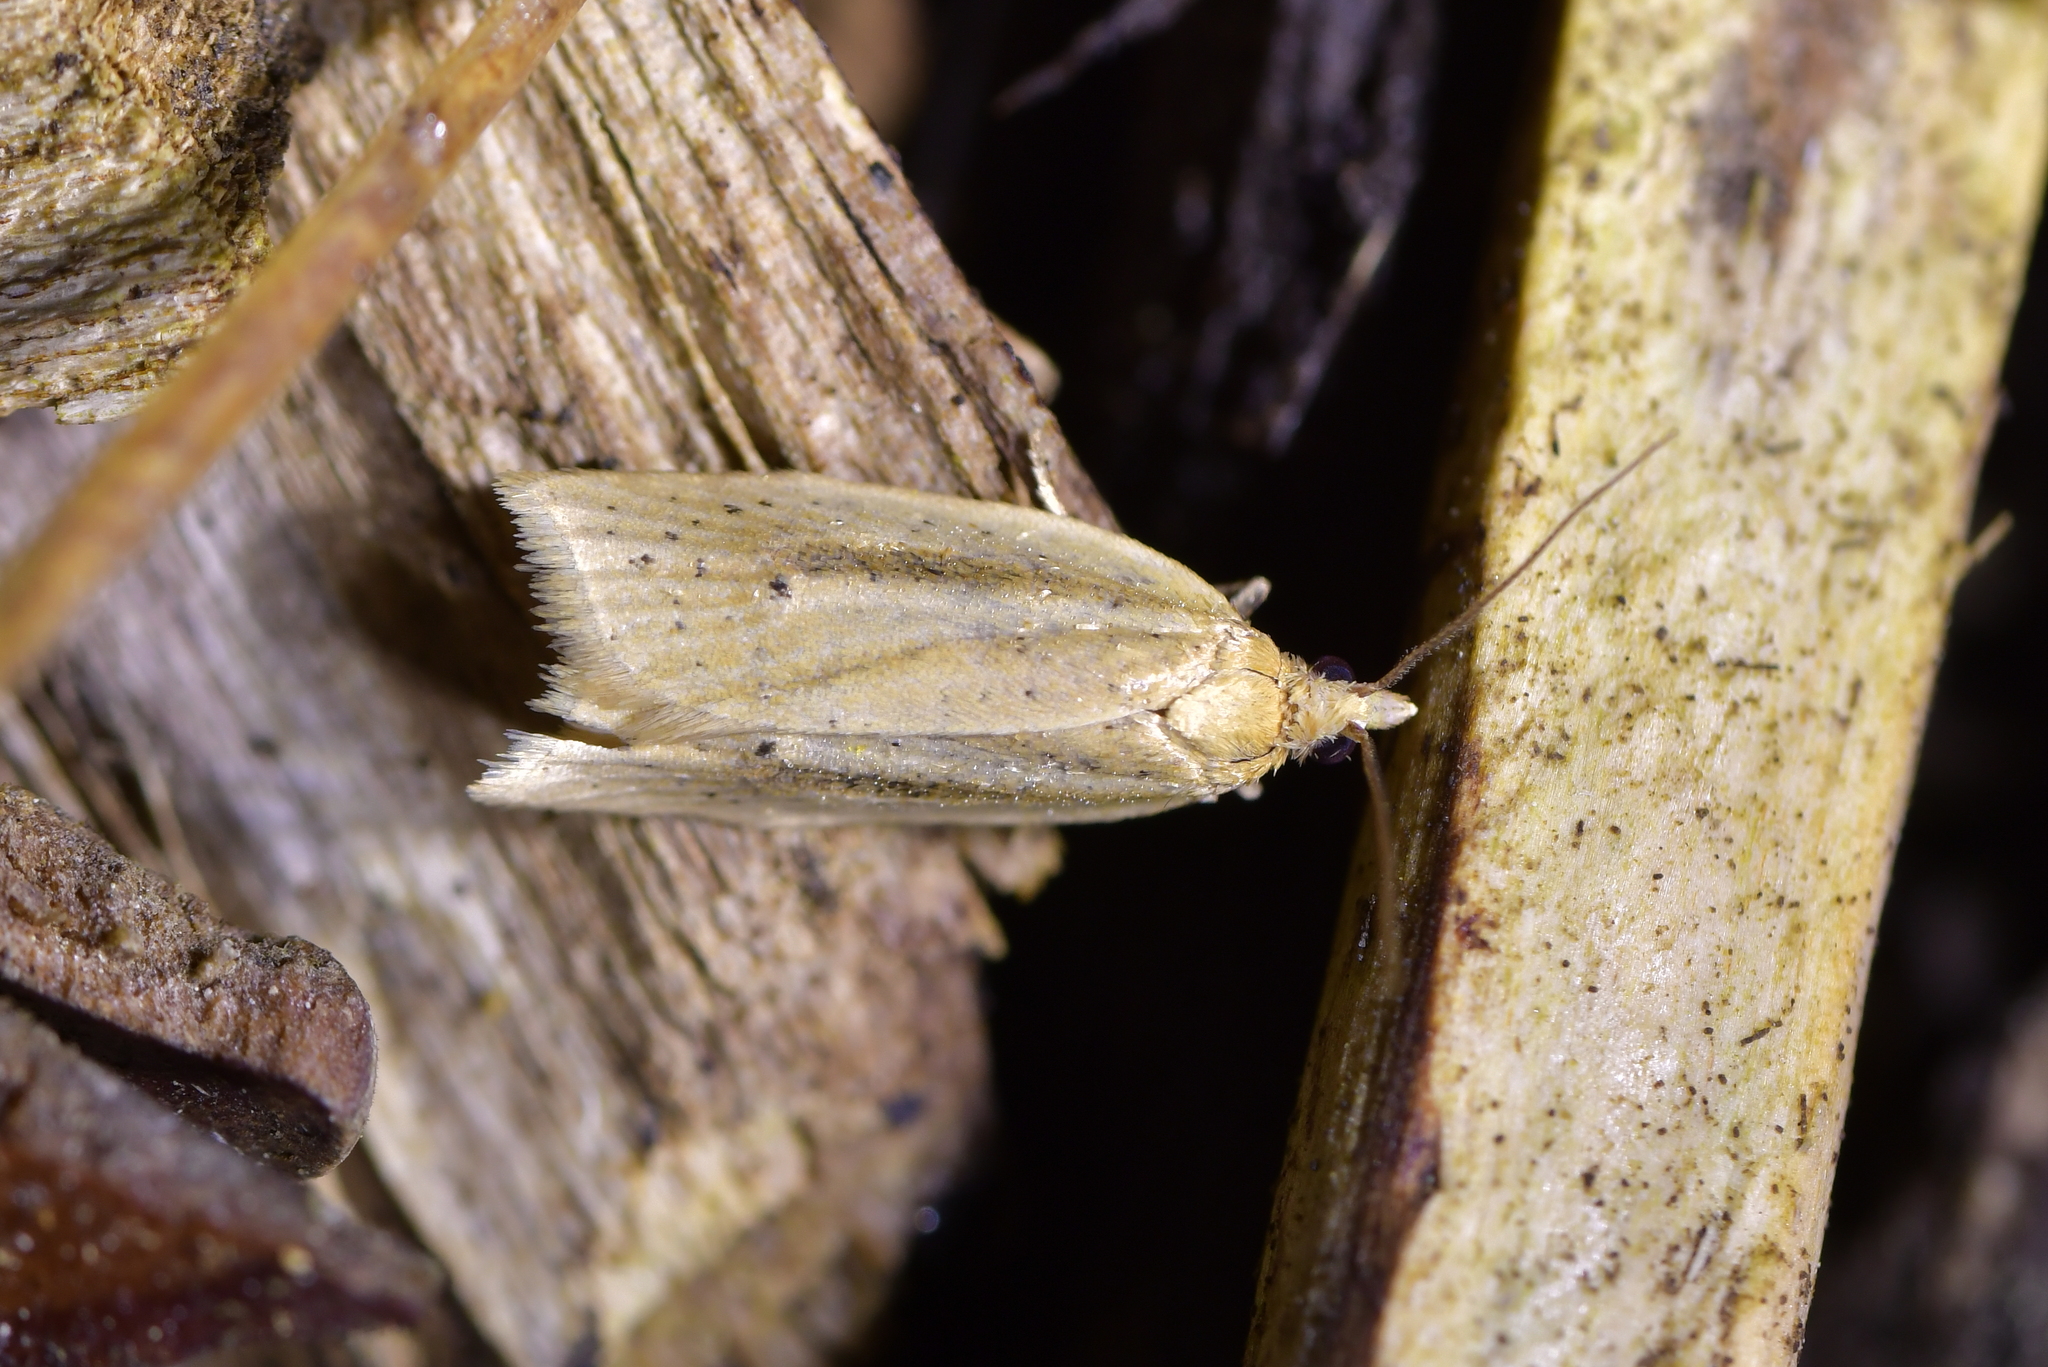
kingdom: Animalia
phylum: Arthropoda
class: Insecta
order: Lepidoptera
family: Tortricidae
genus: Clepsis
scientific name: Clepsis
